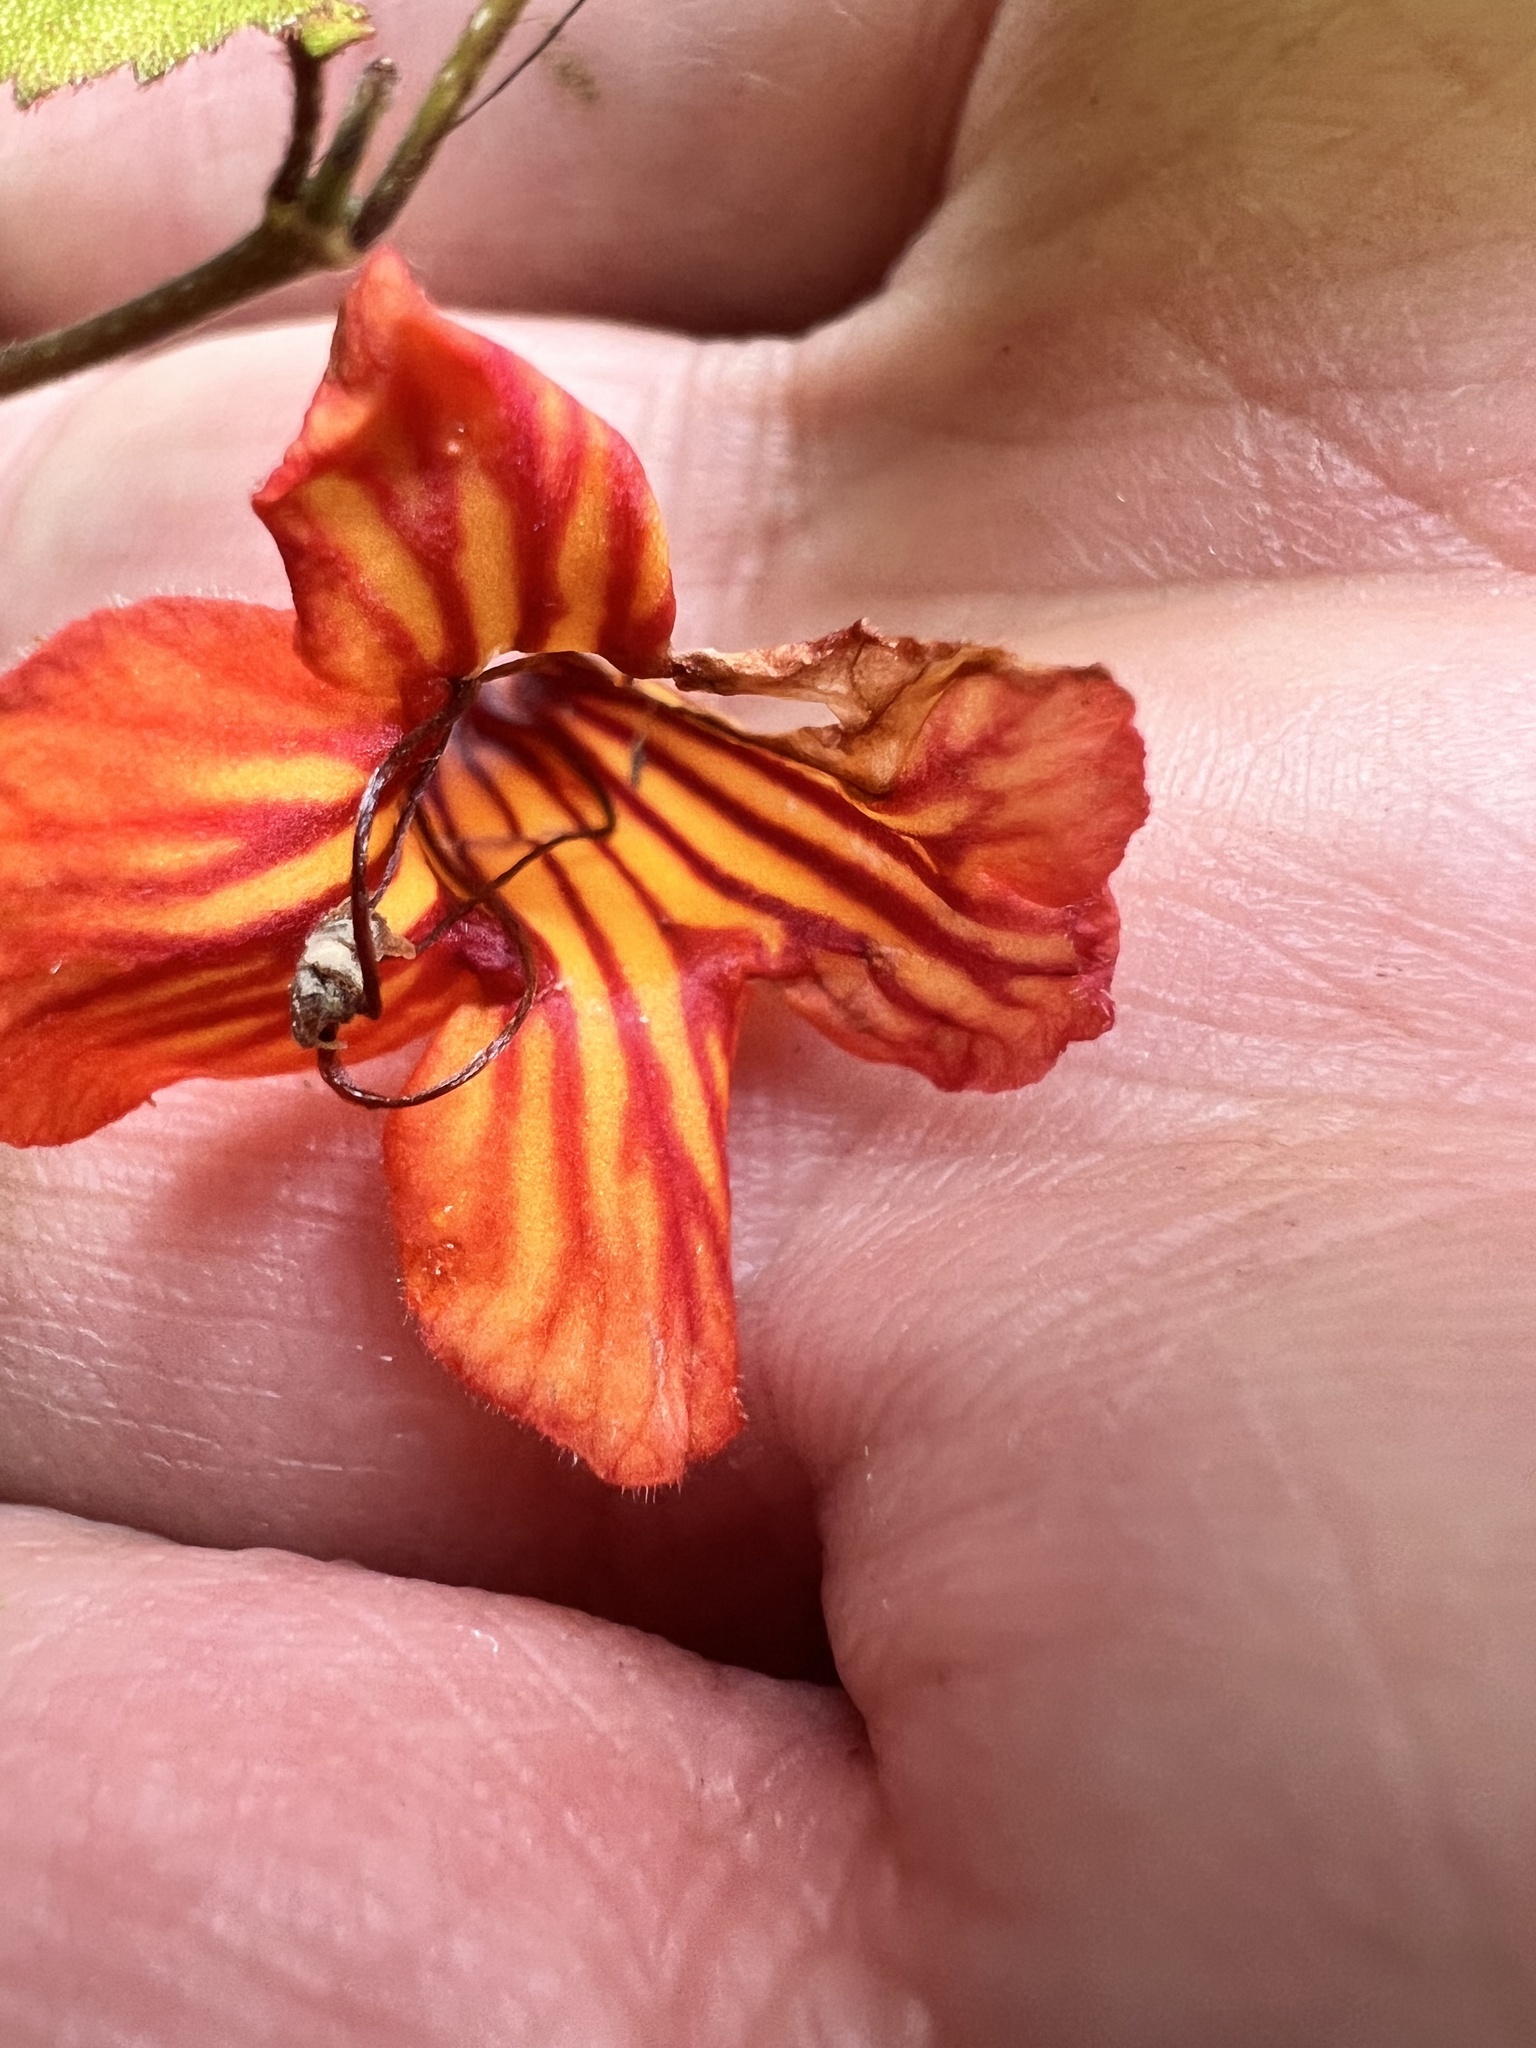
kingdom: Plantae
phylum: Tracheophyta
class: Magnoliopsida
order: Lamiales
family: Gesneriaceae
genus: Rhabdothamnus
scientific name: Rhabdothamnus solandri
